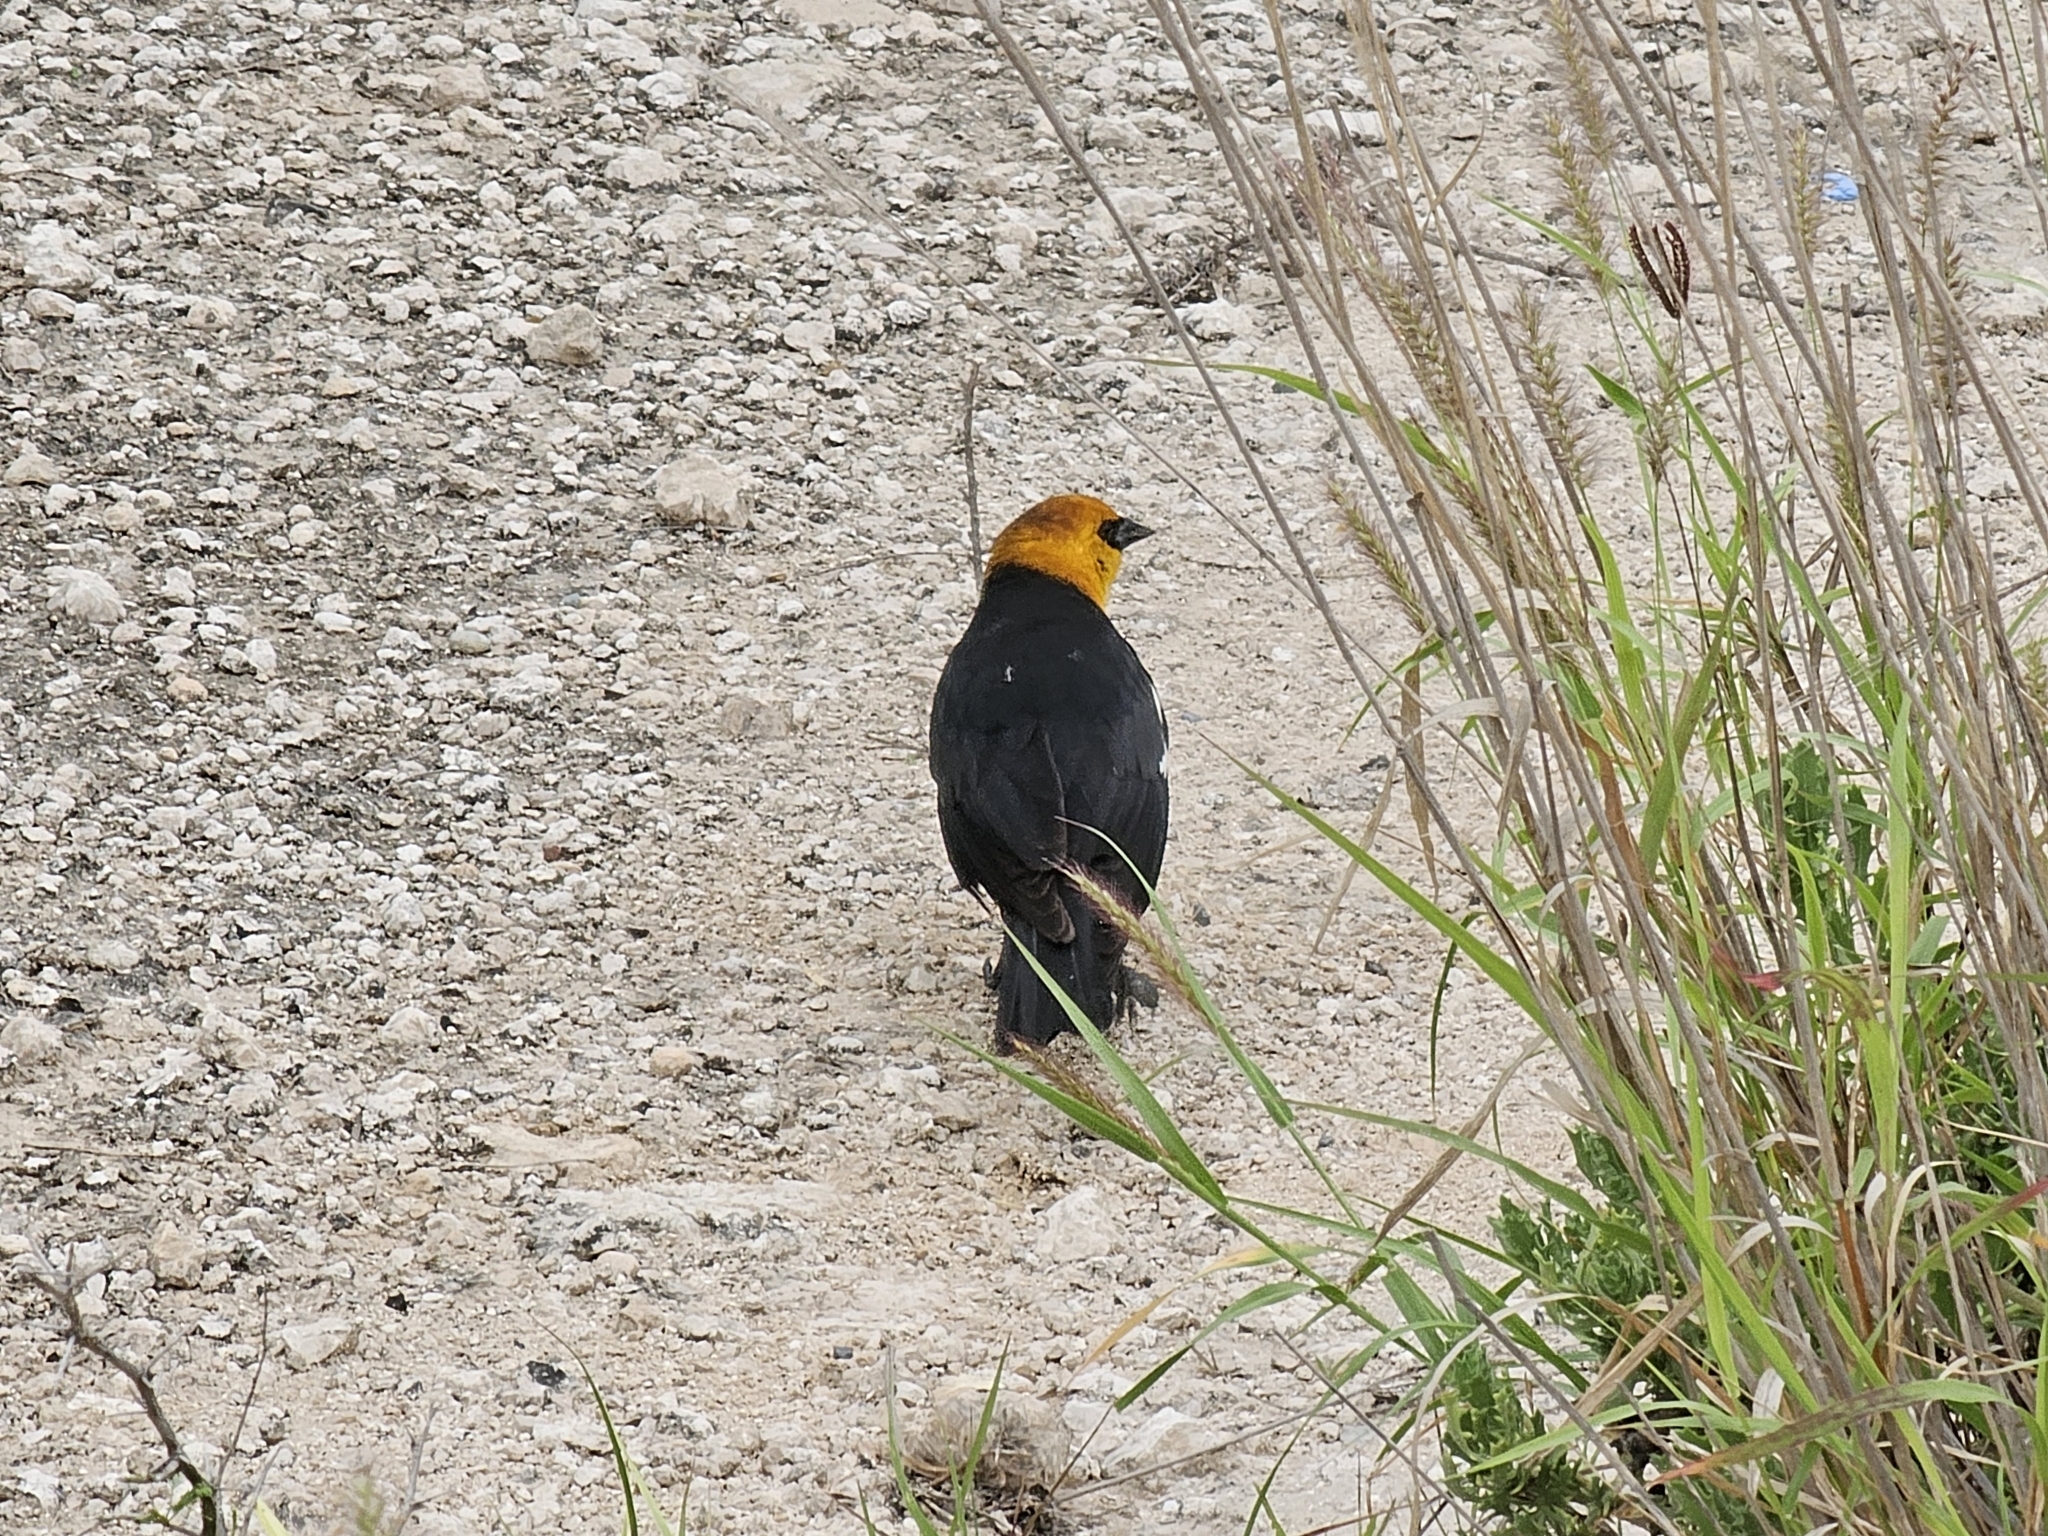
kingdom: Animalia
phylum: Chordata
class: Aves
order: Passeriformes
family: Icteridae
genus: Xanthocephalus
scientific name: Xanthocephalus xanthocephalus
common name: Yellow-headed blackbird
